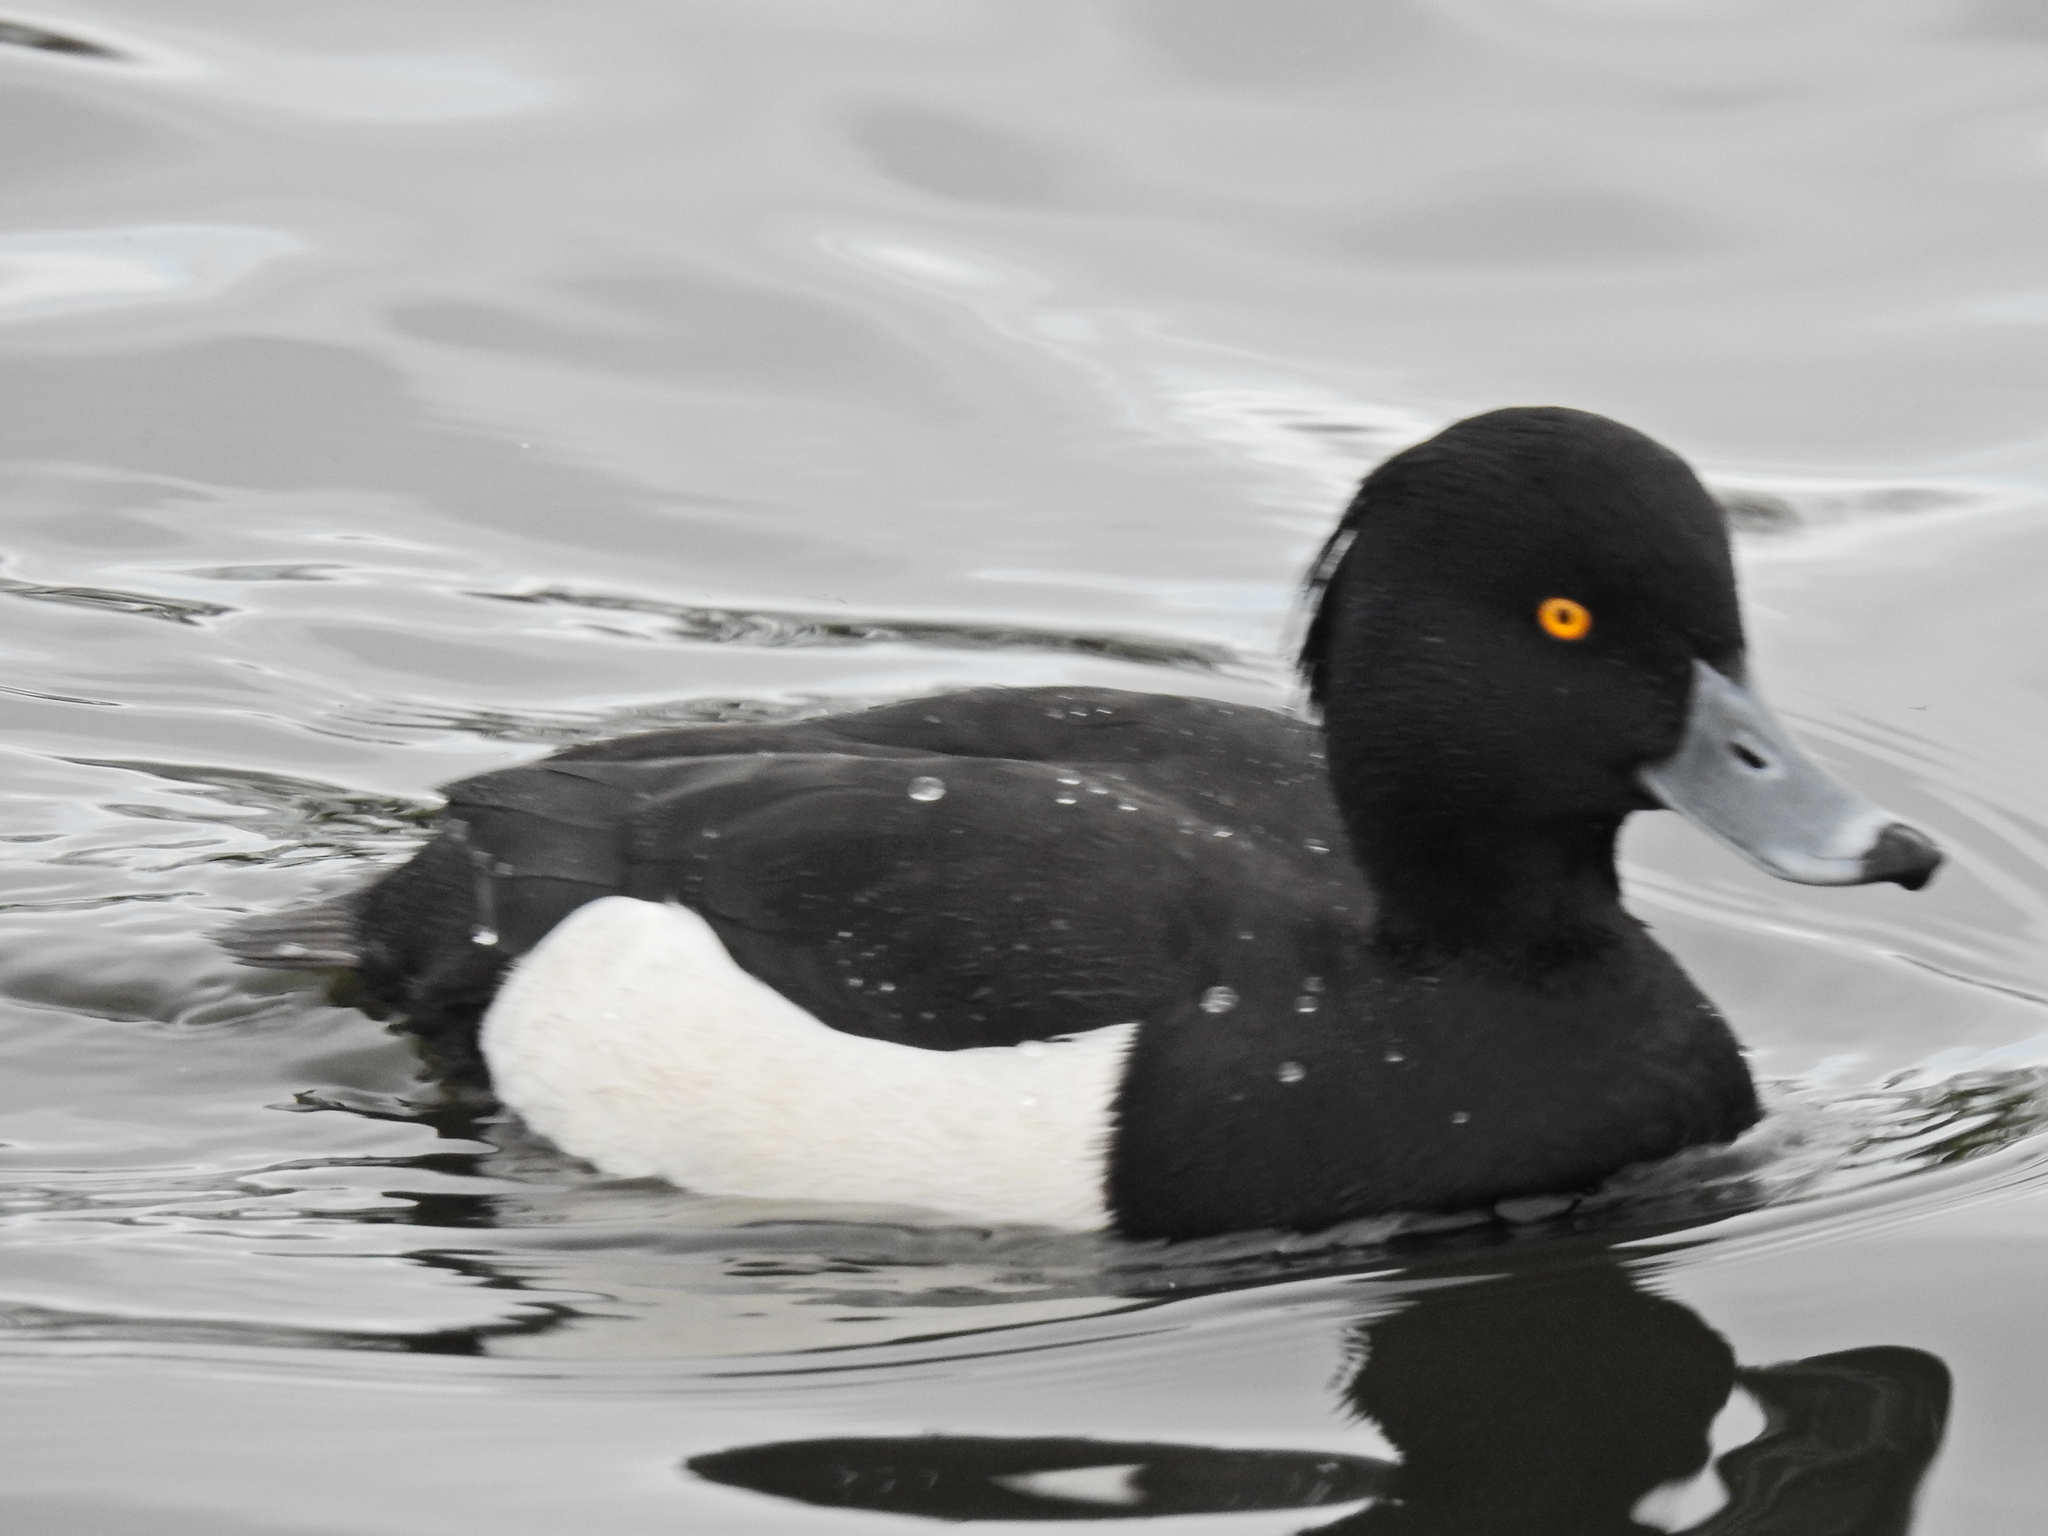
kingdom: Animalia
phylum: Chordata
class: Aves
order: Anseriformes
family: Anatidae
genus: Aythya
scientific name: Aythya fuligula
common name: Tufted duck
